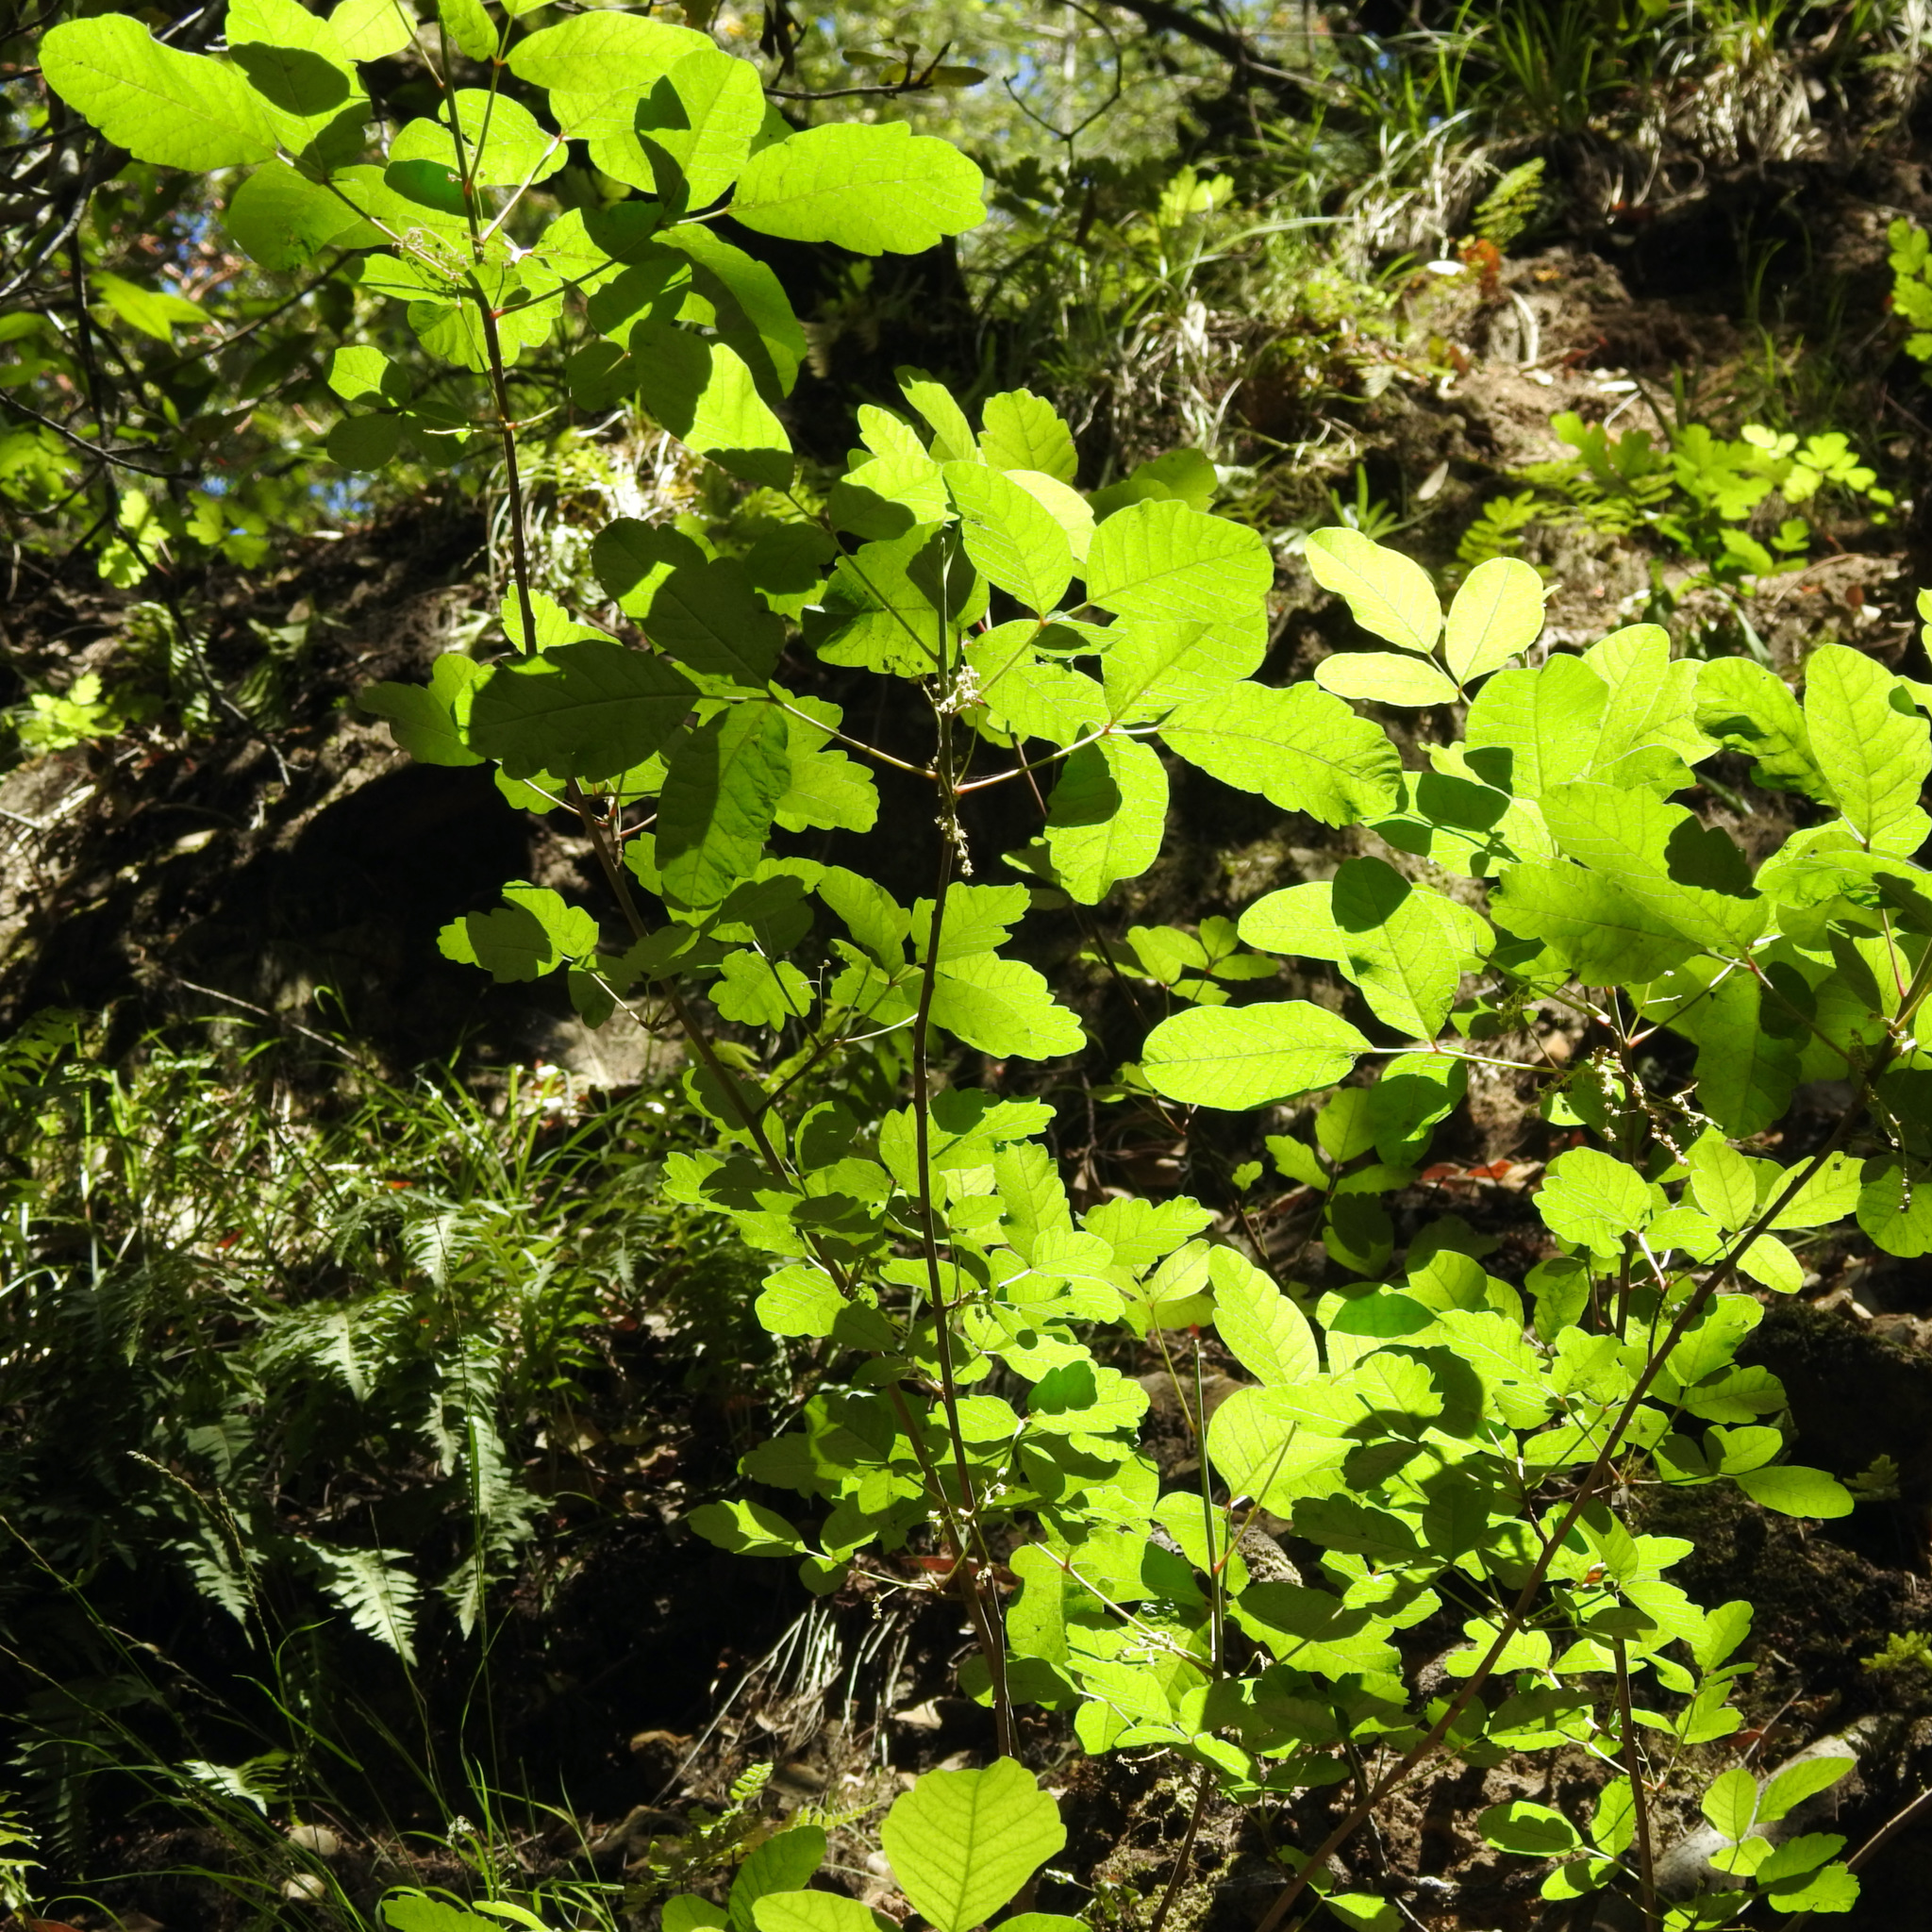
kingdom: Plantae
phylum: Tracheophyta
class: Magnoliopsida
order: Sapindales
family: Anacardiaceae
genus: Toxicodendron
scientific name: Toxicodendron diversilobum
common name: Pacific poison-oak
